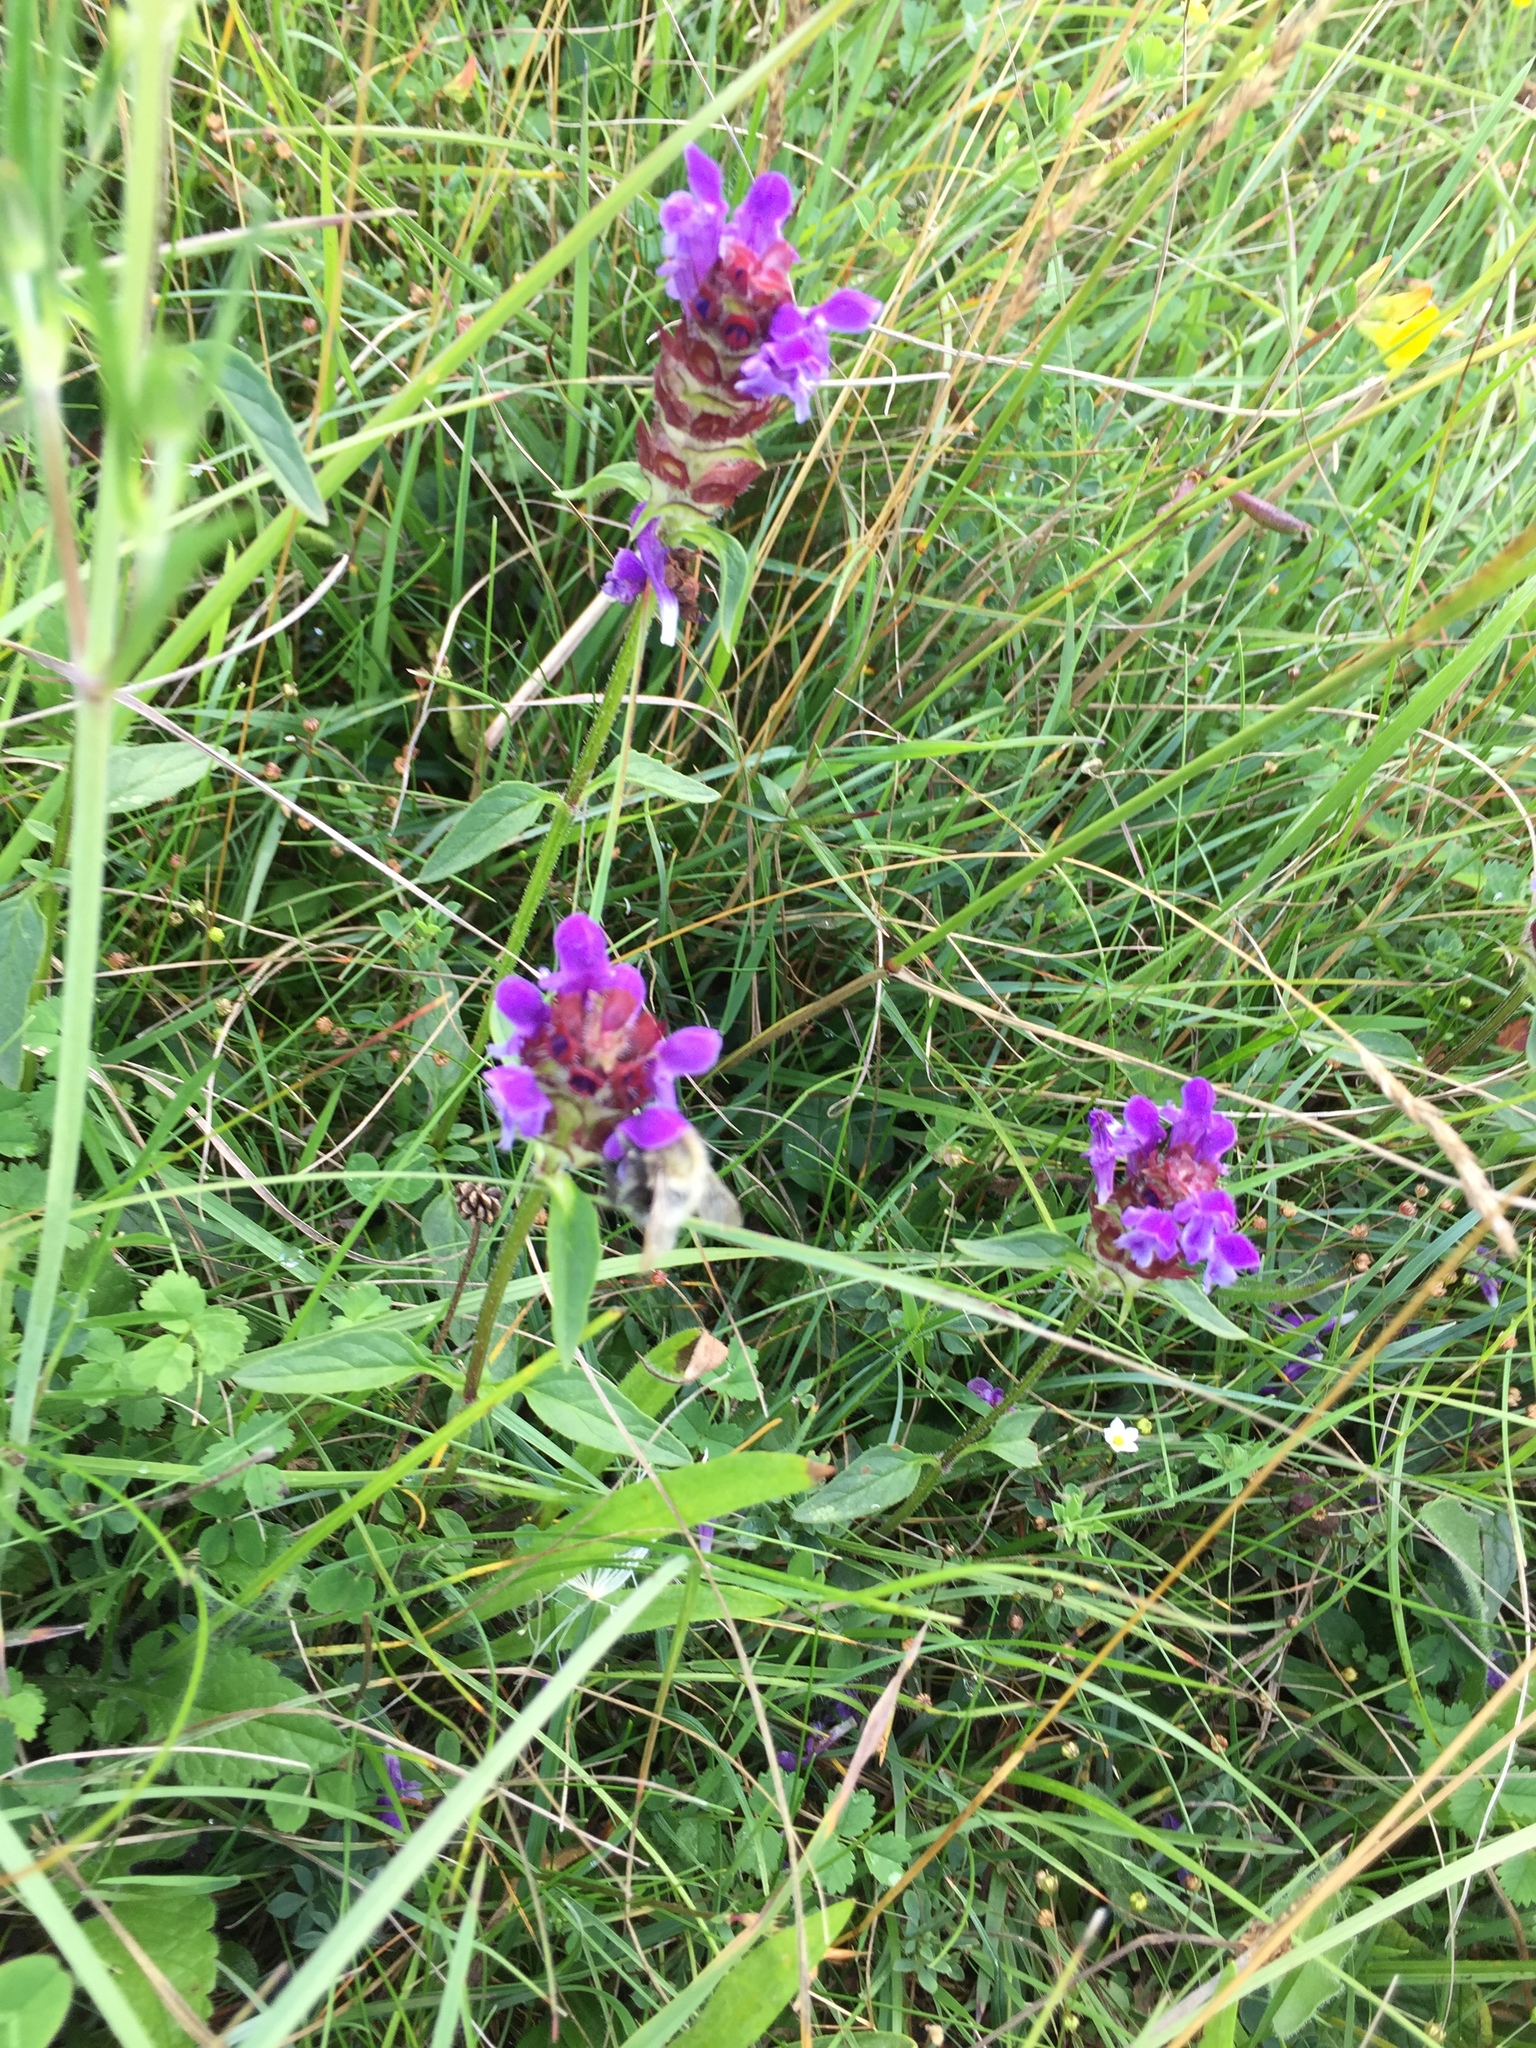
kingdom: Plantae
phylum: Tracheophyta
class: Magnoliopsida
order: Lamiales
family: Lamiaceae
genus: Prunella
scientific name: Prunella vulgaris
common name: Heal-all
